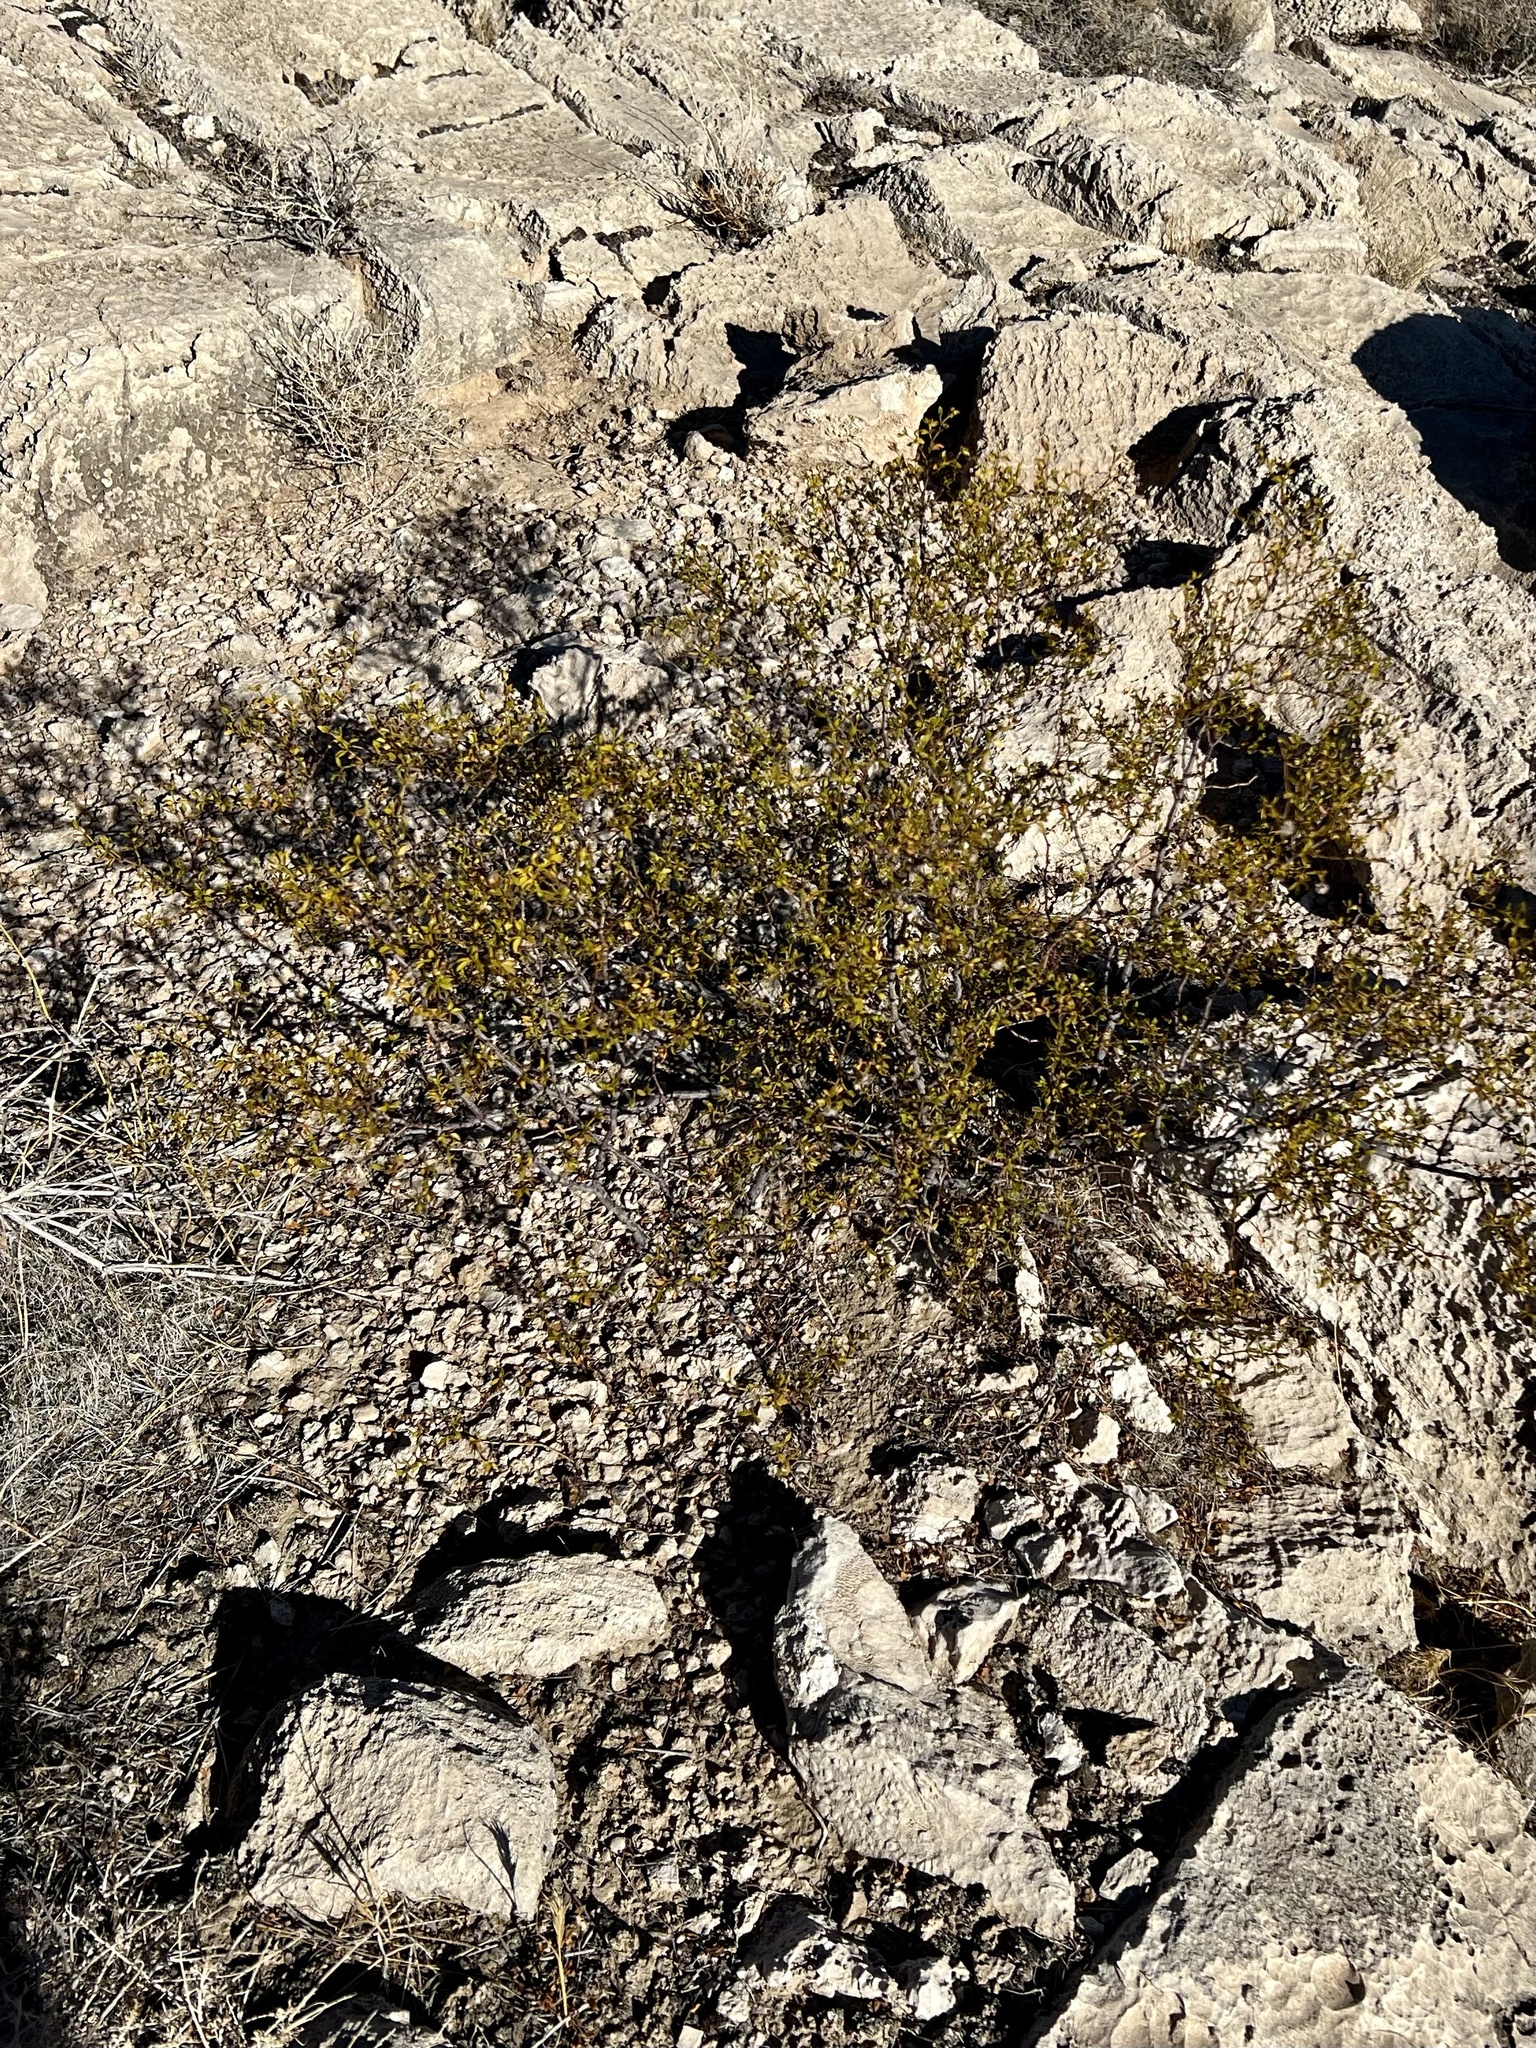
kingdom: Plantae
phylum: Tracheophyta
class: Magnoliopsida
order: Zygophyllales
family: Zygophyllaceae
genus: Larrea
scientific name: Larrea tridentata
